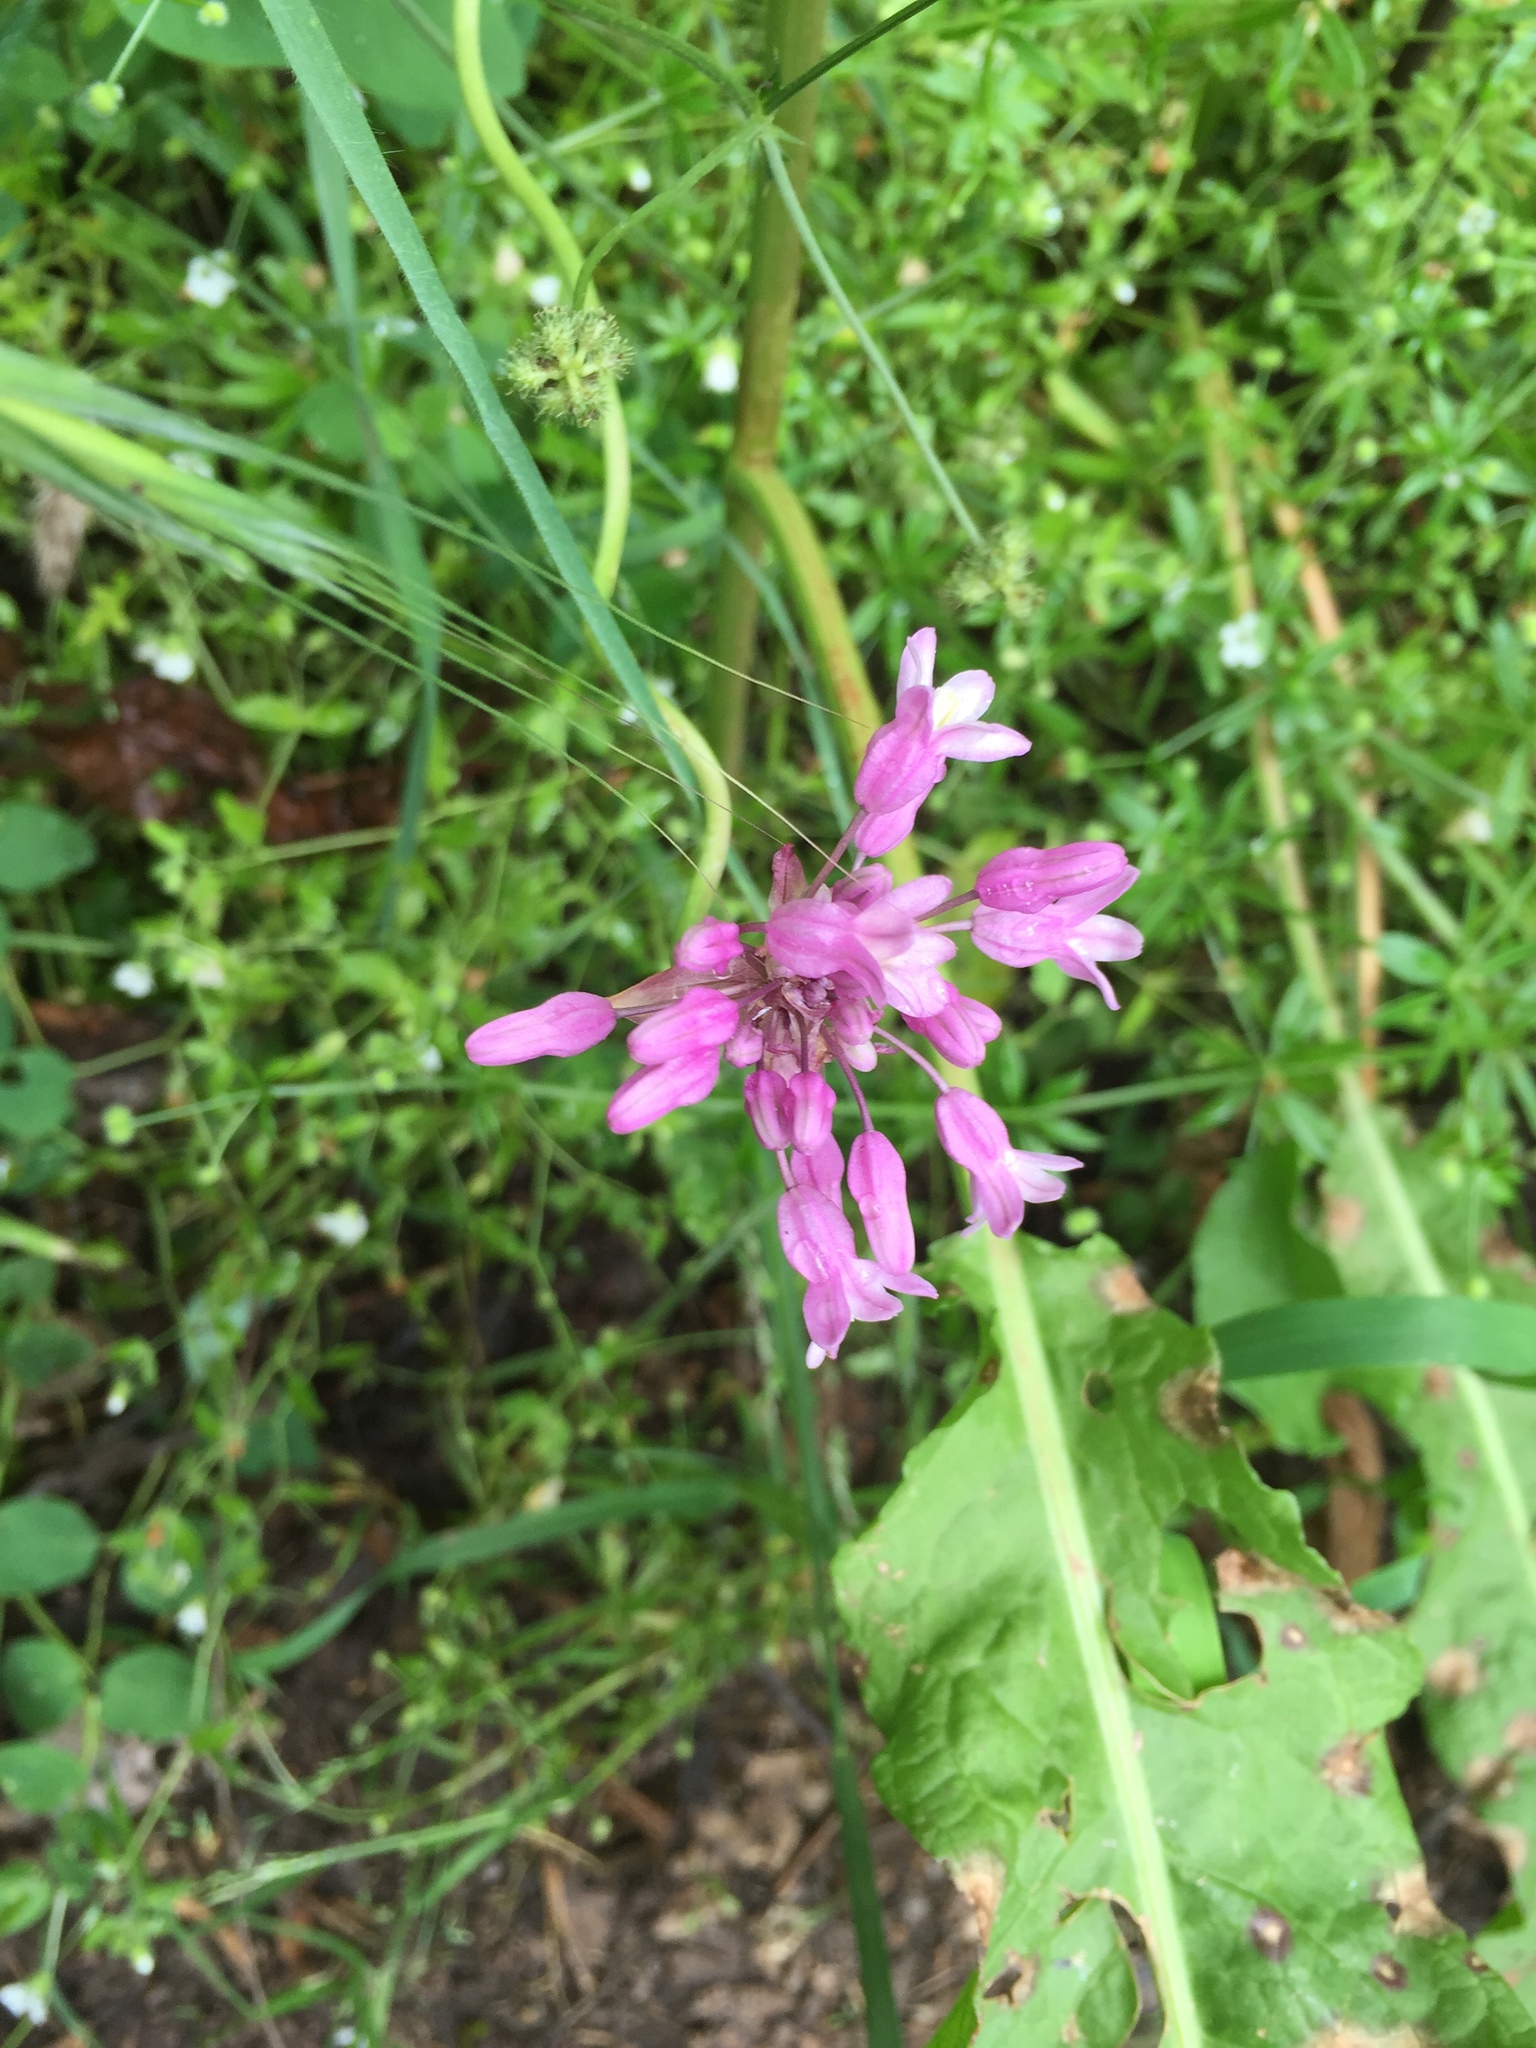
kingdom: Plantae
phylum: Tracheophyta
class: Liliopsida
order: Asparagales
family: Asparagaceae
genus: Dichelostemma
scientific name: Dichelostemma volubile
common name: Trining brodiaea
